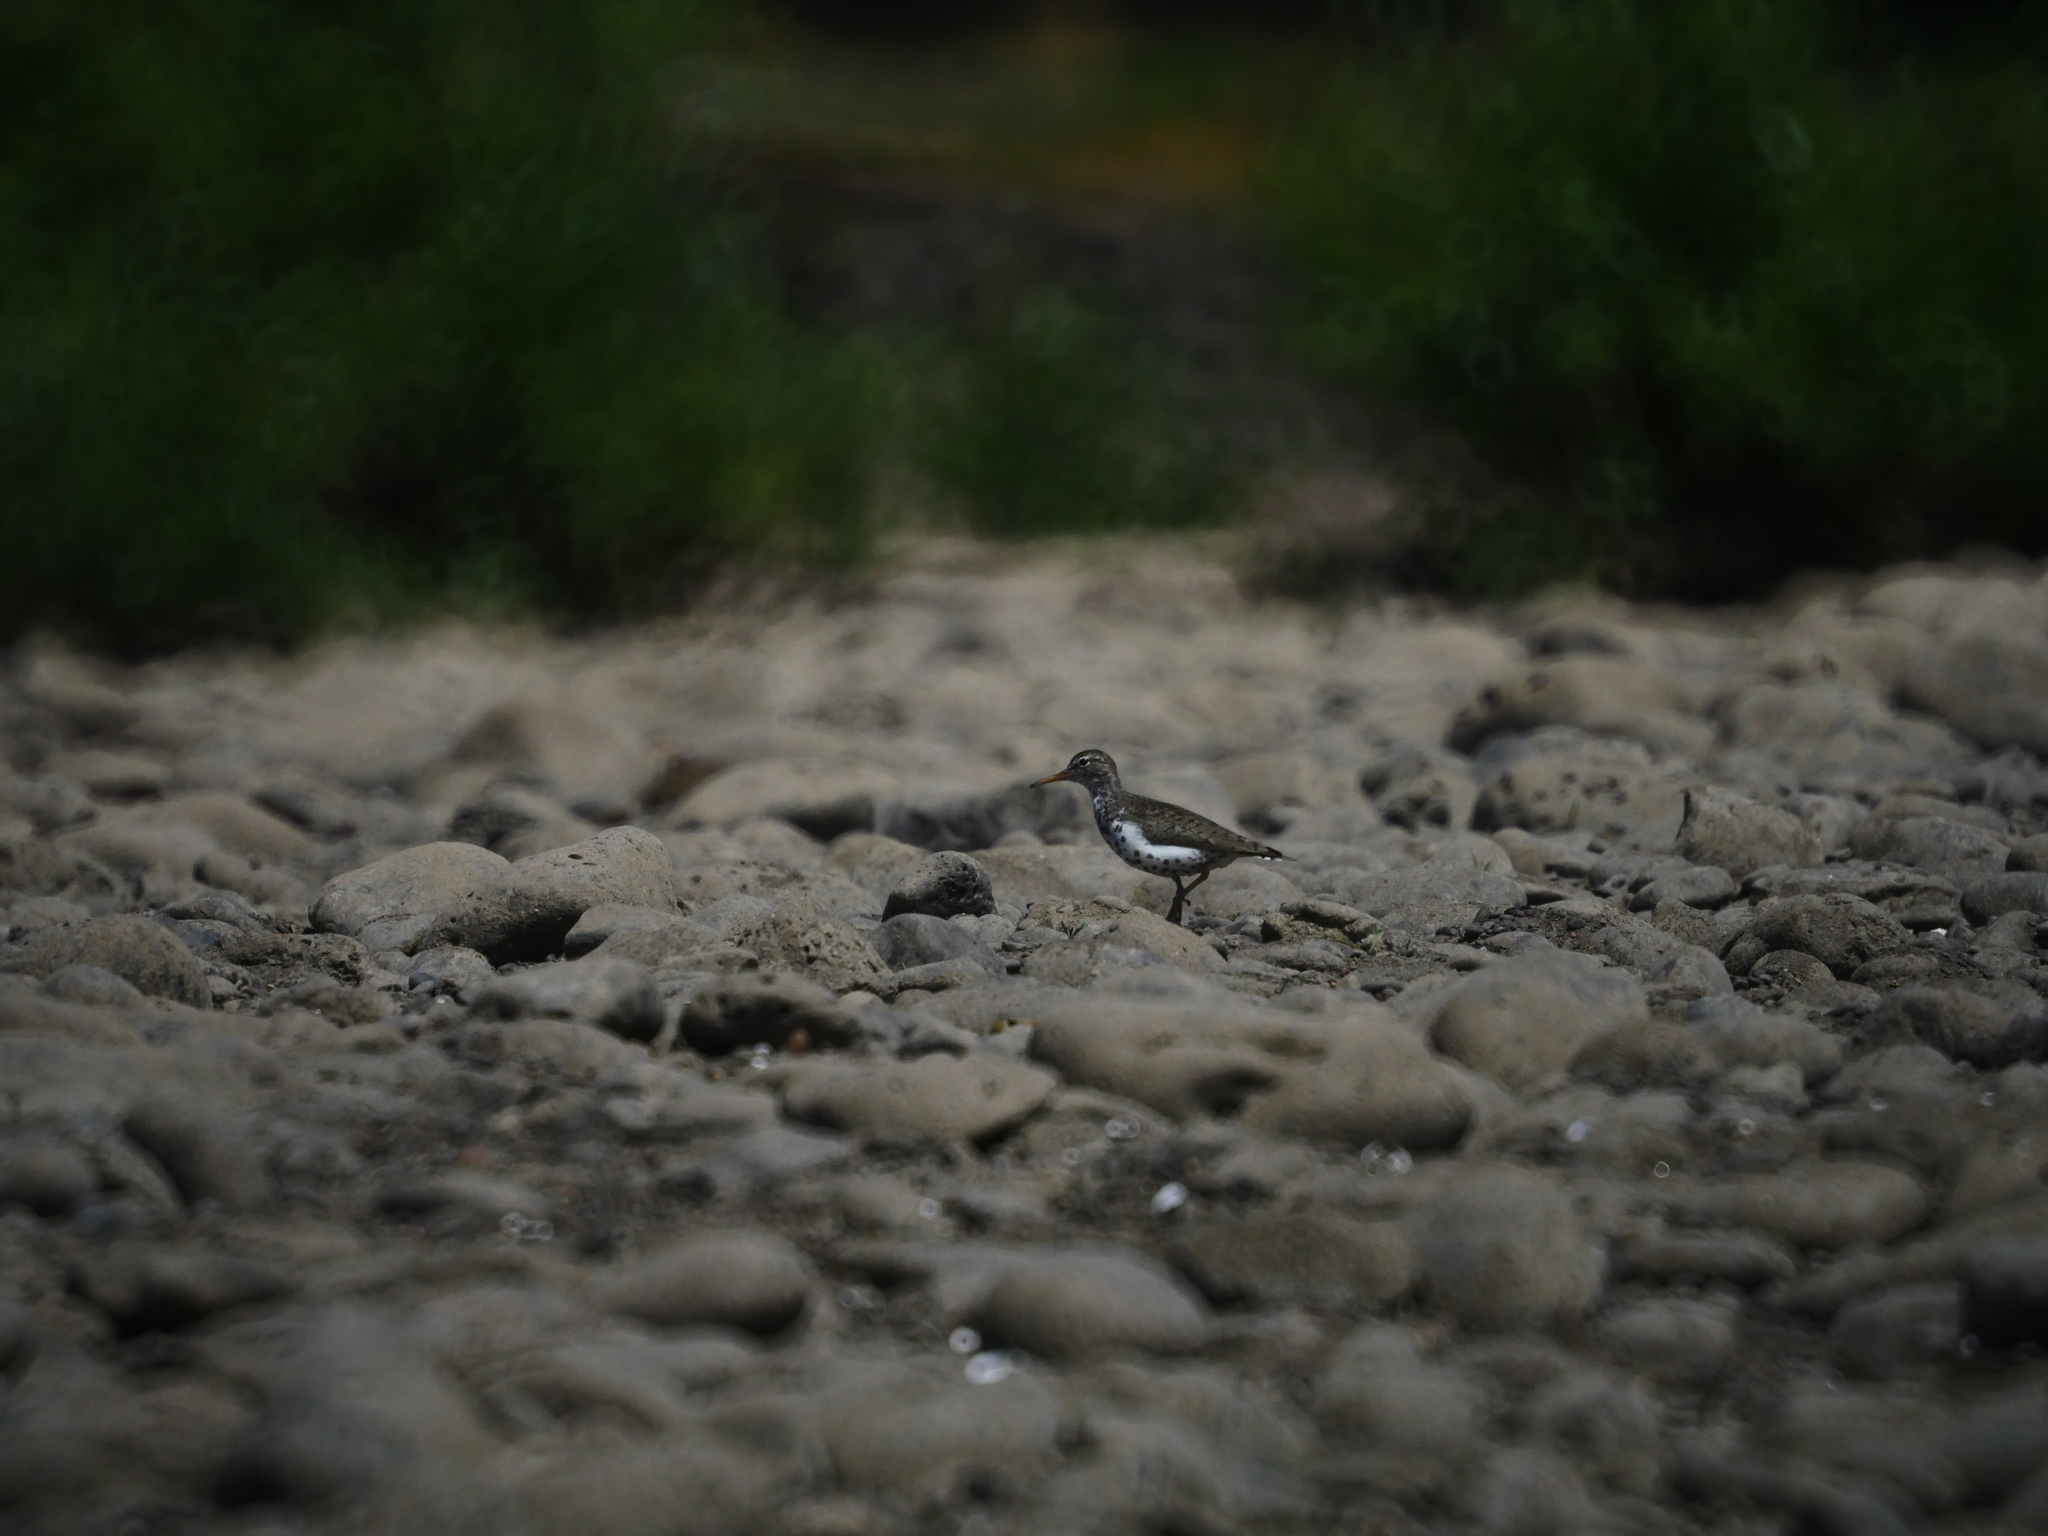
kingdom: Animalia
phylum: Chordata
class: Aves
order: Charadriiformes
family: Scolopacidae
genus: Actitis
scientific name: Actitis macularius
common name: Spotted sandpiper
